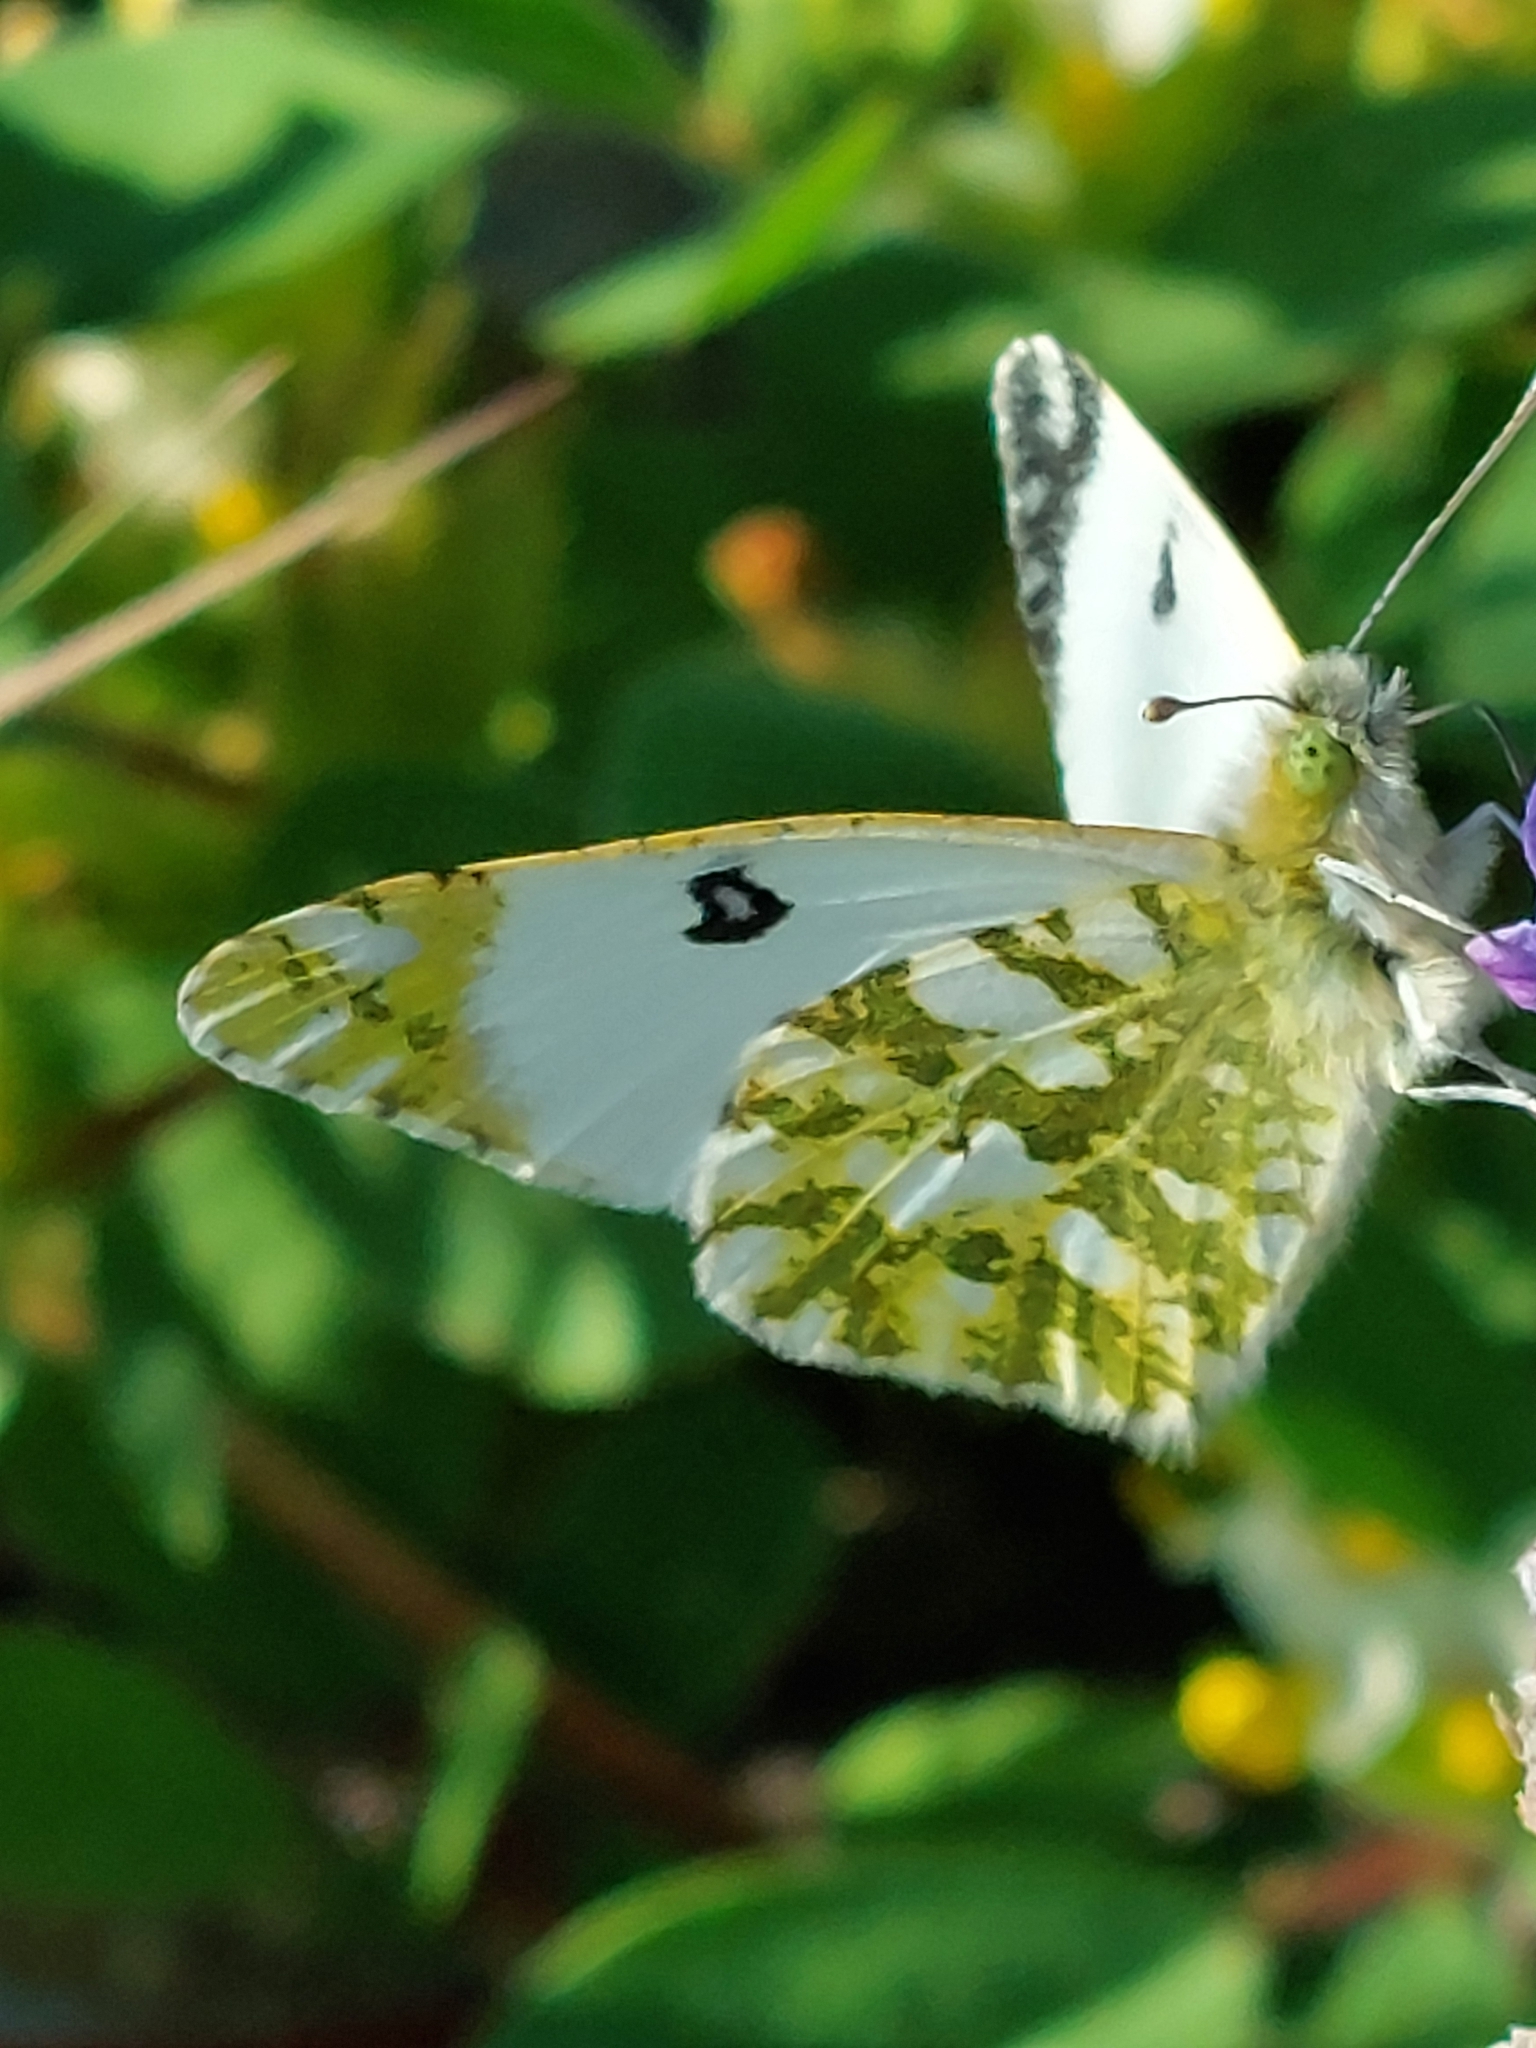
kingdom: Animalia
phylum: Arthropoda
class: Insecta
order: Lepidoptera
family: Pieridae
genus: Euchloe
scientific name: Euchloe crameri
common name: Western dappled white
